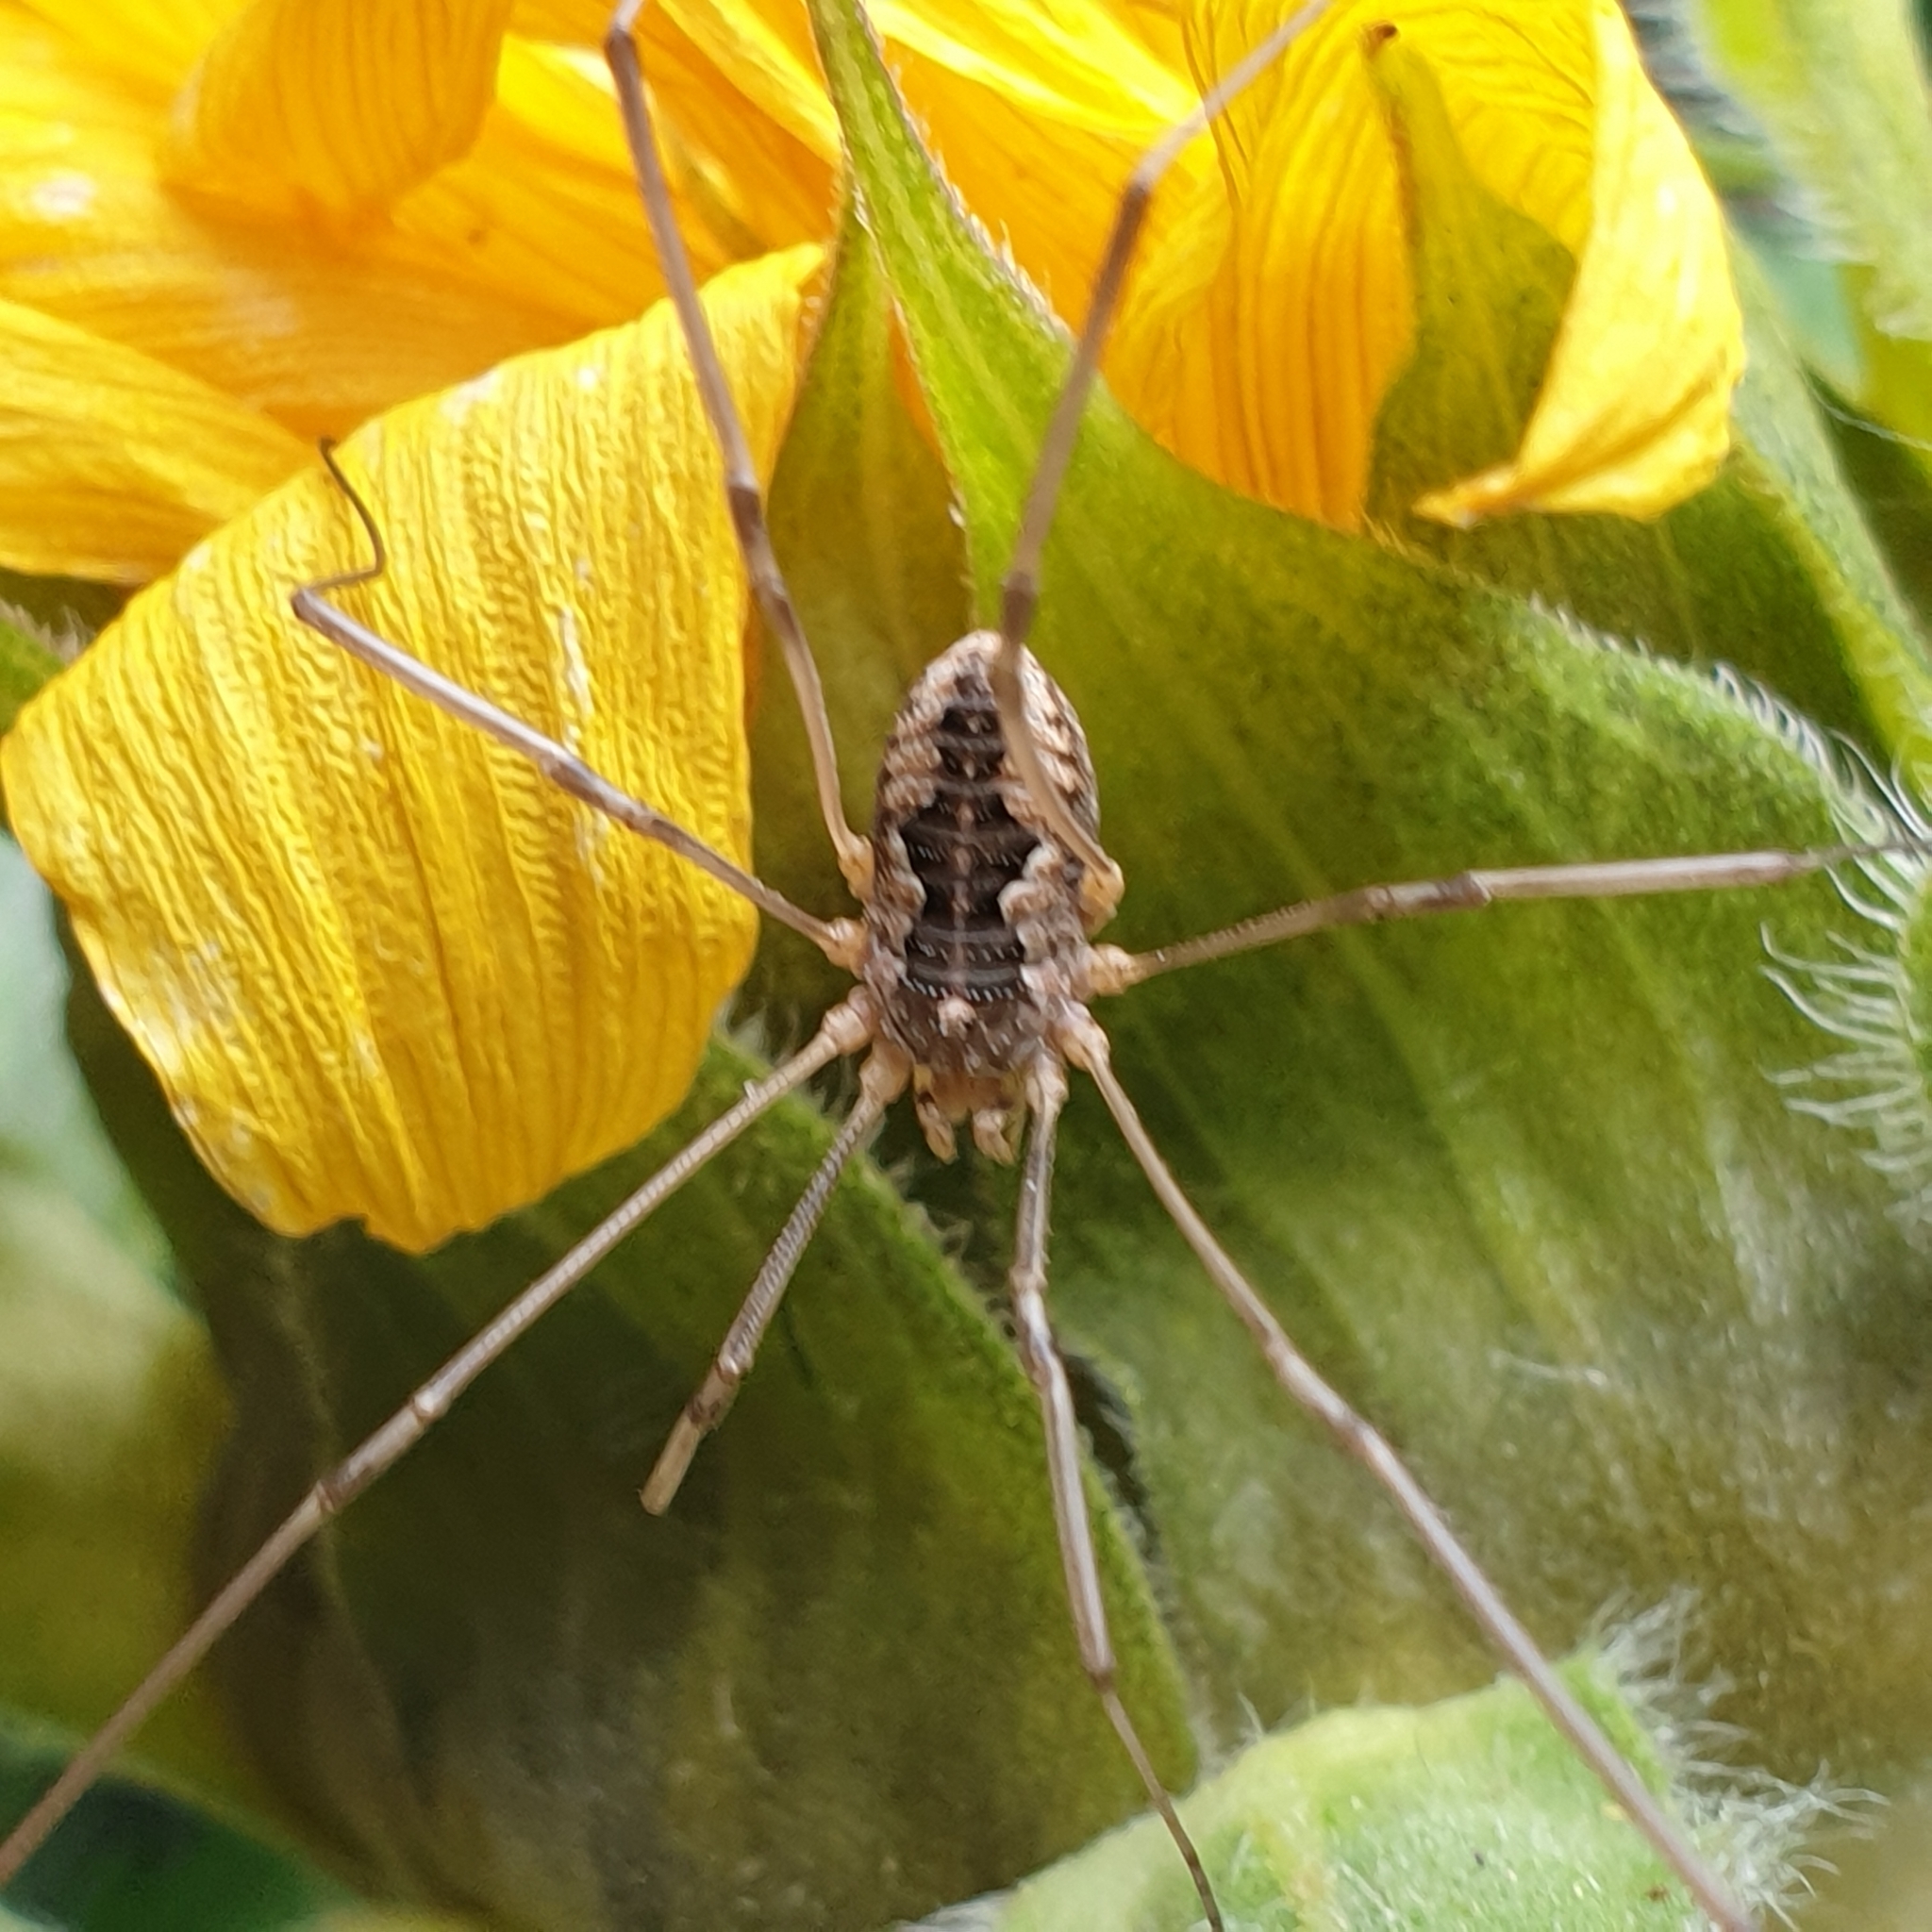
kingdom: Animalia
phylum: Arthropoda
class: Arachnida
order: Opiliones
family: Phalangiidae
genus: Phalangium
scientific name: Phalangium opilio
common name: Daddy longleg
